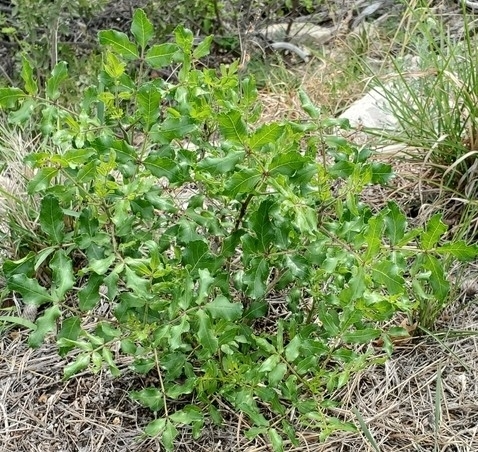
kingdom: Plantae
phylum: Tracheophyta
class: Magnoliopsida
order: Sapindales
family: Rutaceae
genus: Zanthoxylum
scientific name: Zanthoxylum clava-herculis
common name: Hercules'-club
